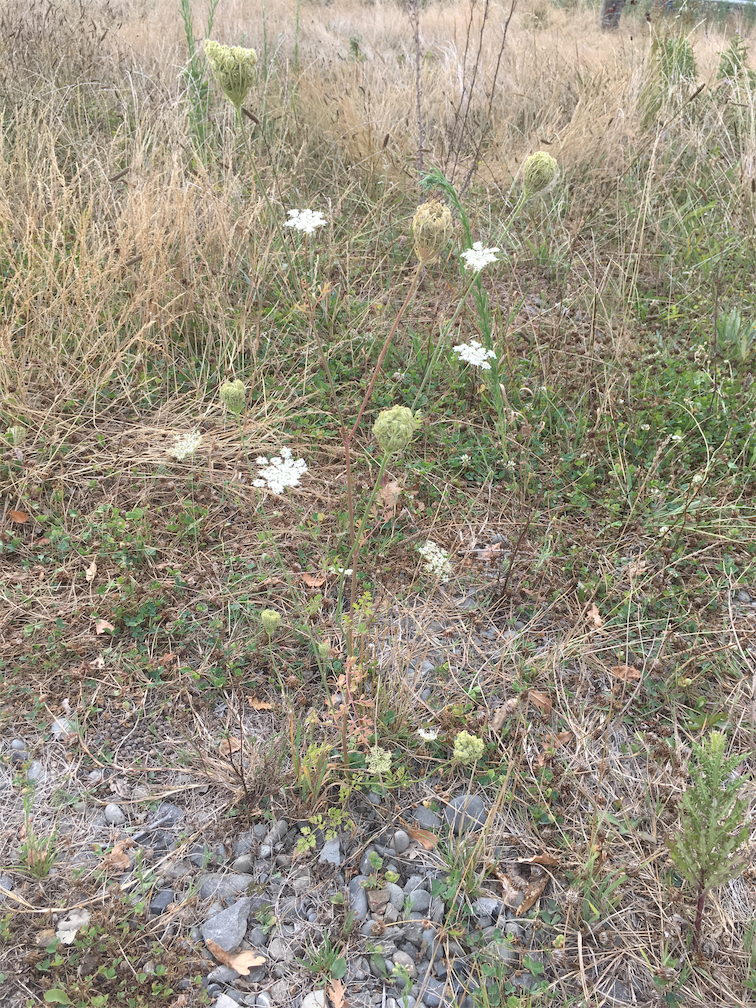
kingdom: Plantae
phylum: Tracheophyta
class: Magnoliopsida
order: Apiales
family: Apiaceae
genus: Daucus
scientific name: Daucus carota
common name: Wild carrot
